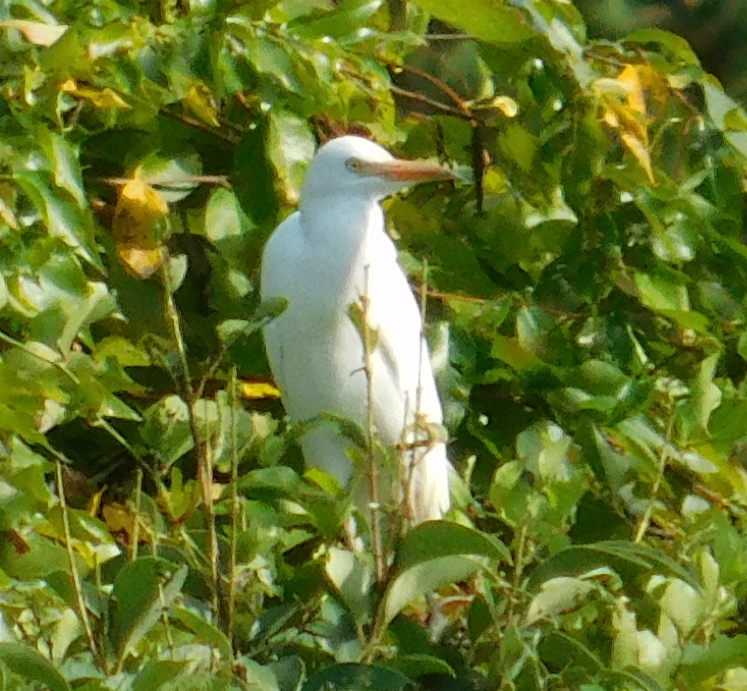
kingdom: Animalia
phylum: Chordata
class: Aves
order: Pelecaniformes
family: Ardeidae
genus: Bubulcus
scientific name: Bubulcus ibis
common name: Cattle egret
